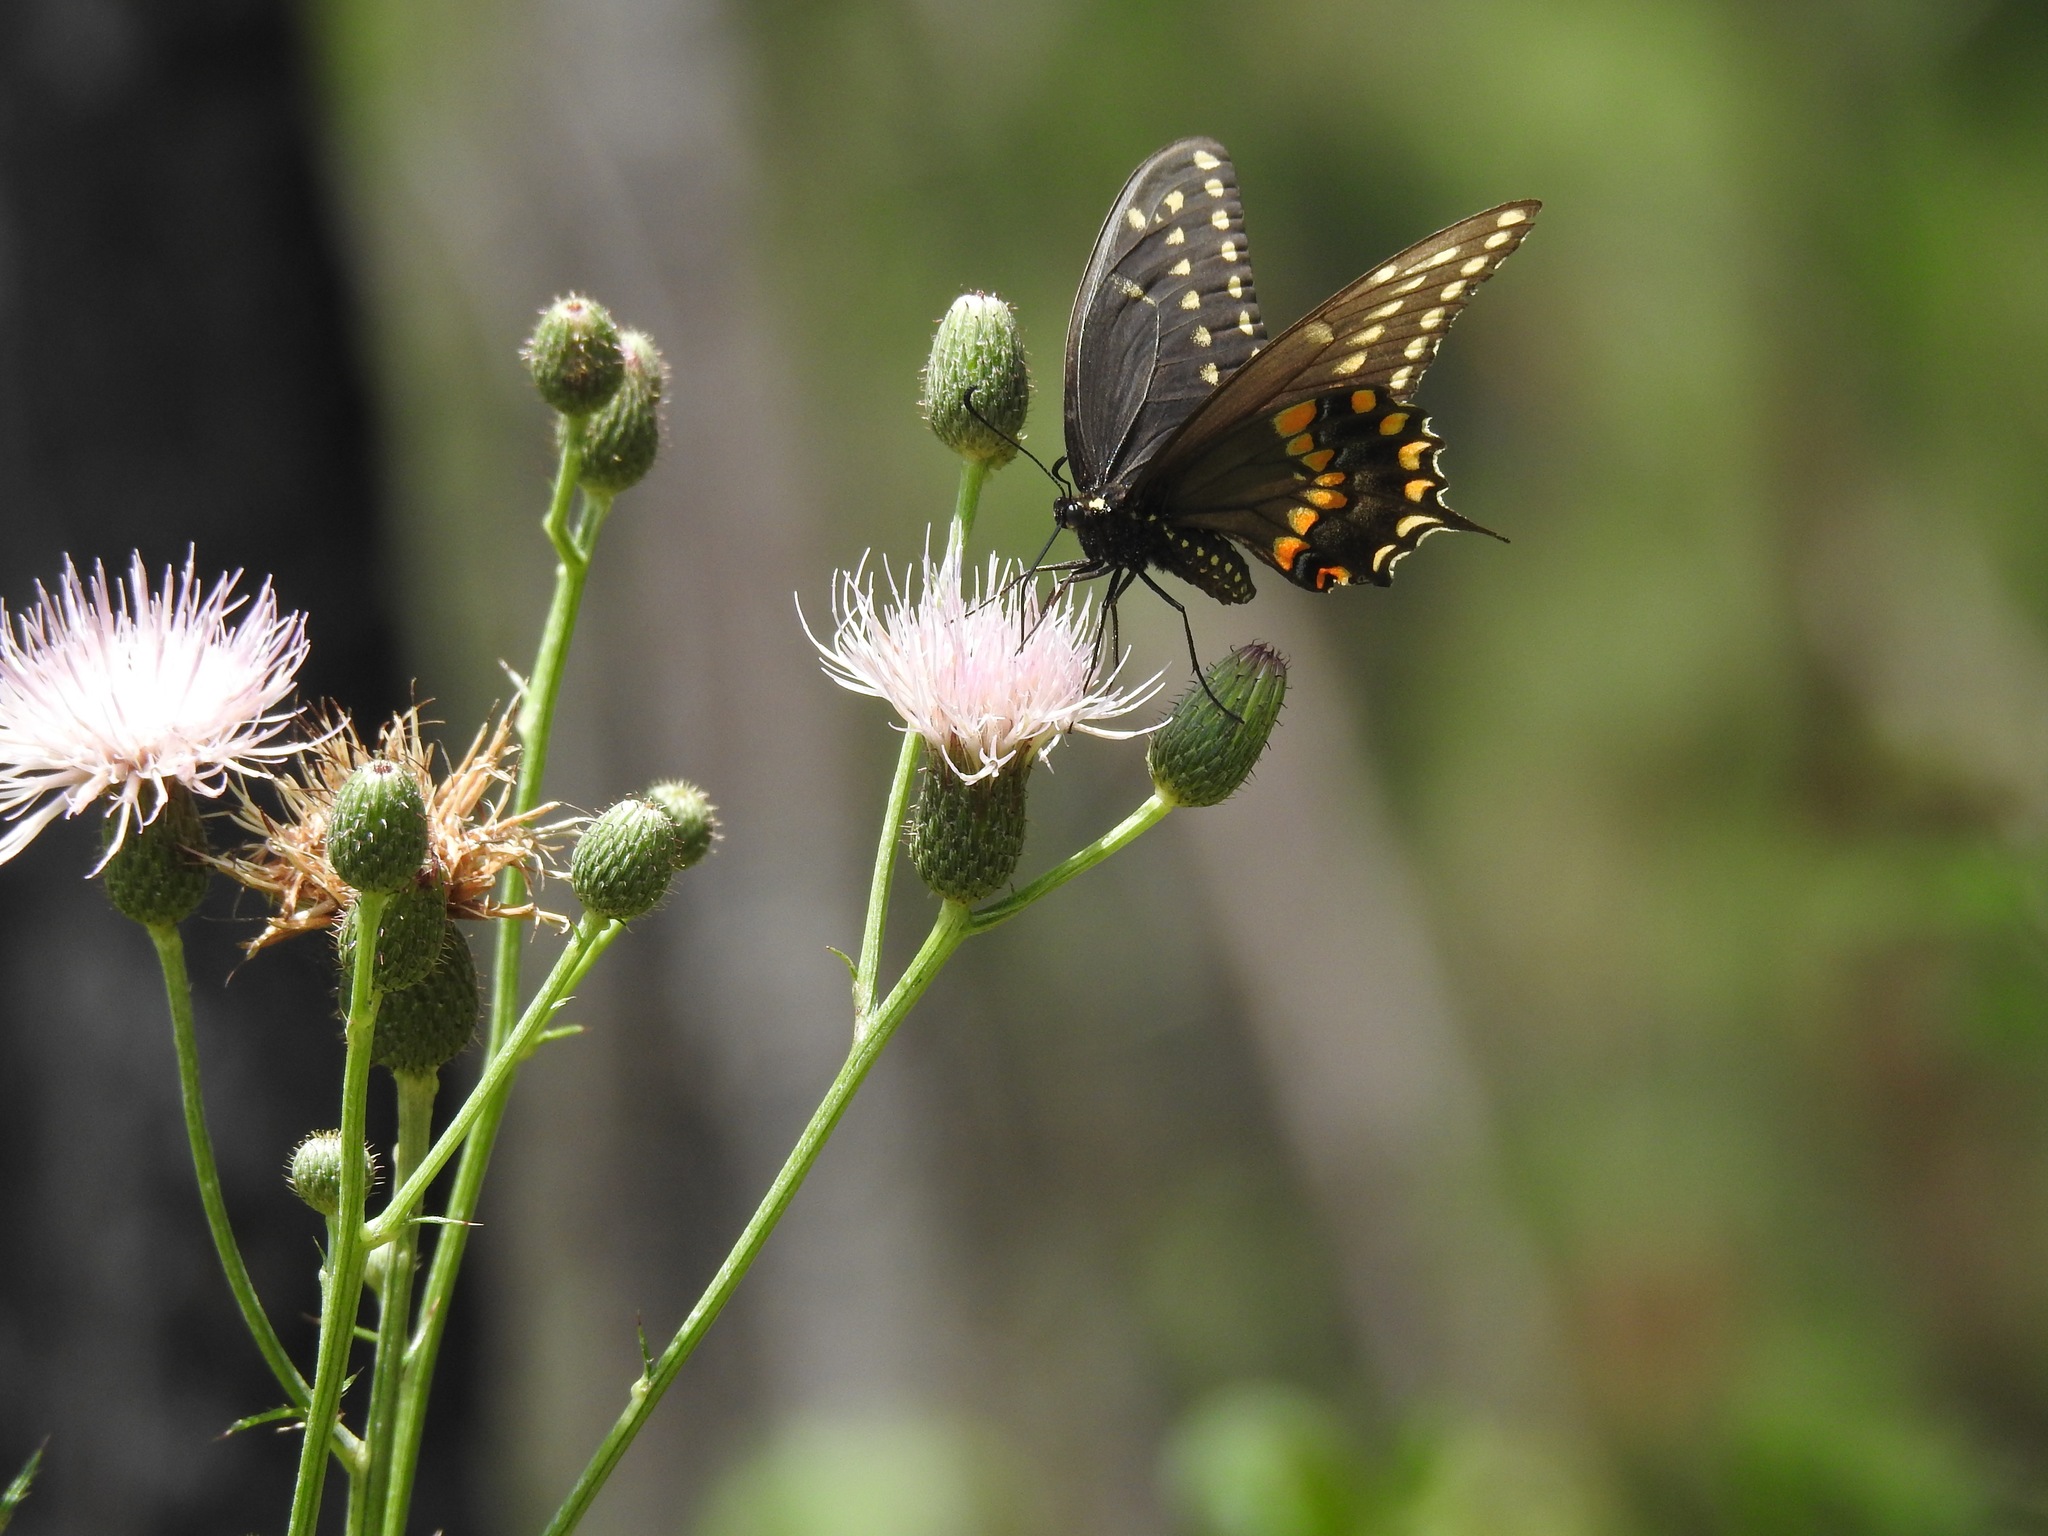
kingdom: Plantae
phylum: Tracheophyta
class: Magnoliopsida
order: Asterales
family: Asteraceae
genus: Cirsium
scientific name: Cirsium nuttalii
